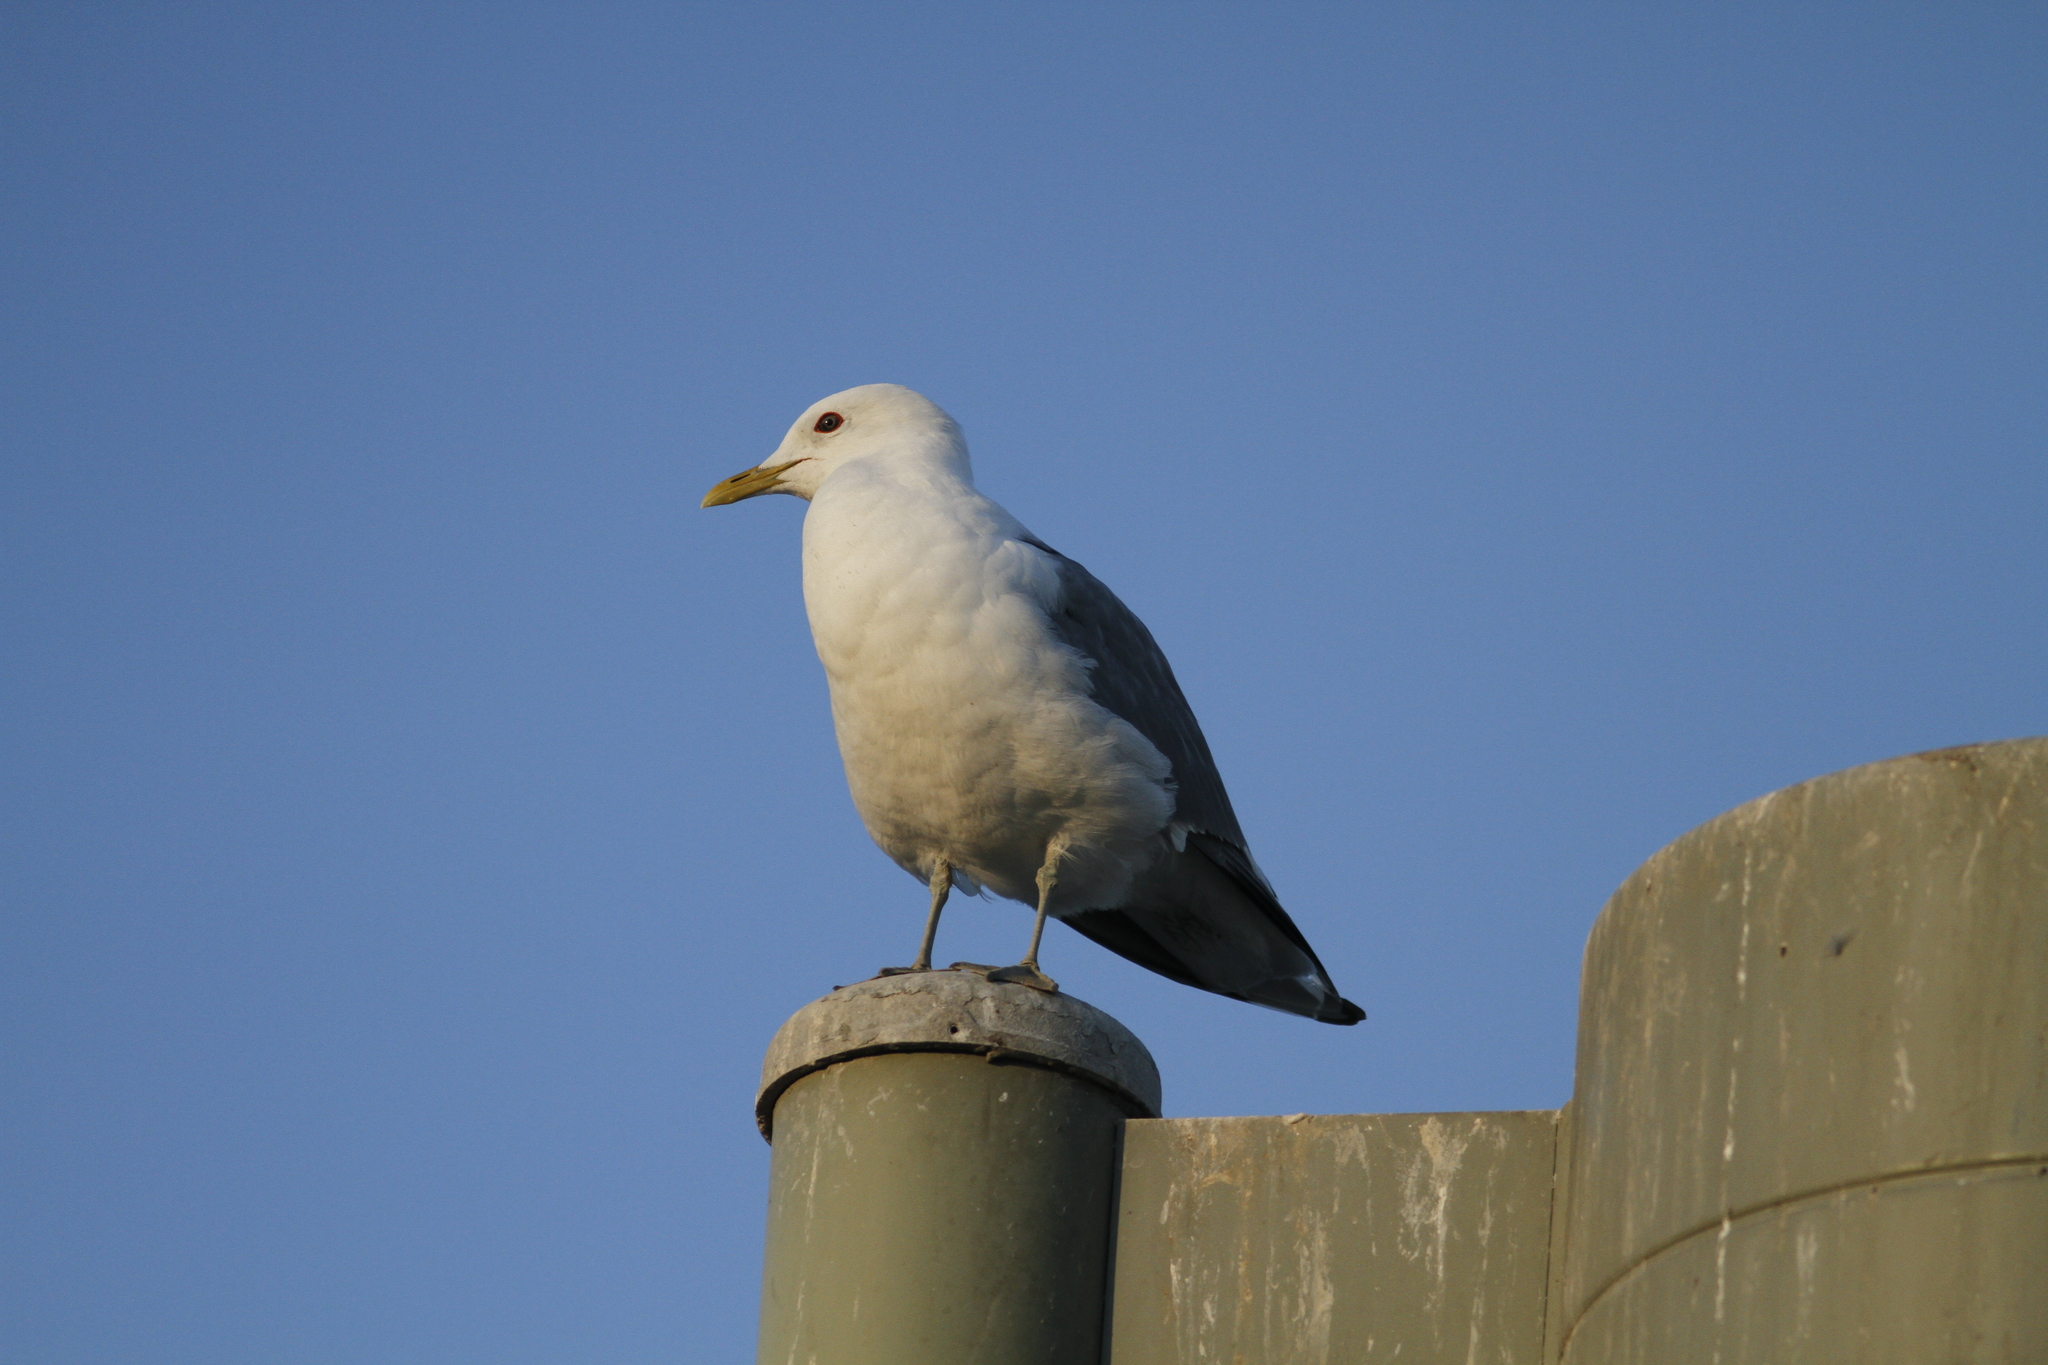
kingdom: Animalia
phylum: Chordata
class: Aves
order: Charadriiformes
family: Laridae
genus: Larus
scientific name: Larus brachyrhynchus
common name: Short-billed gull
